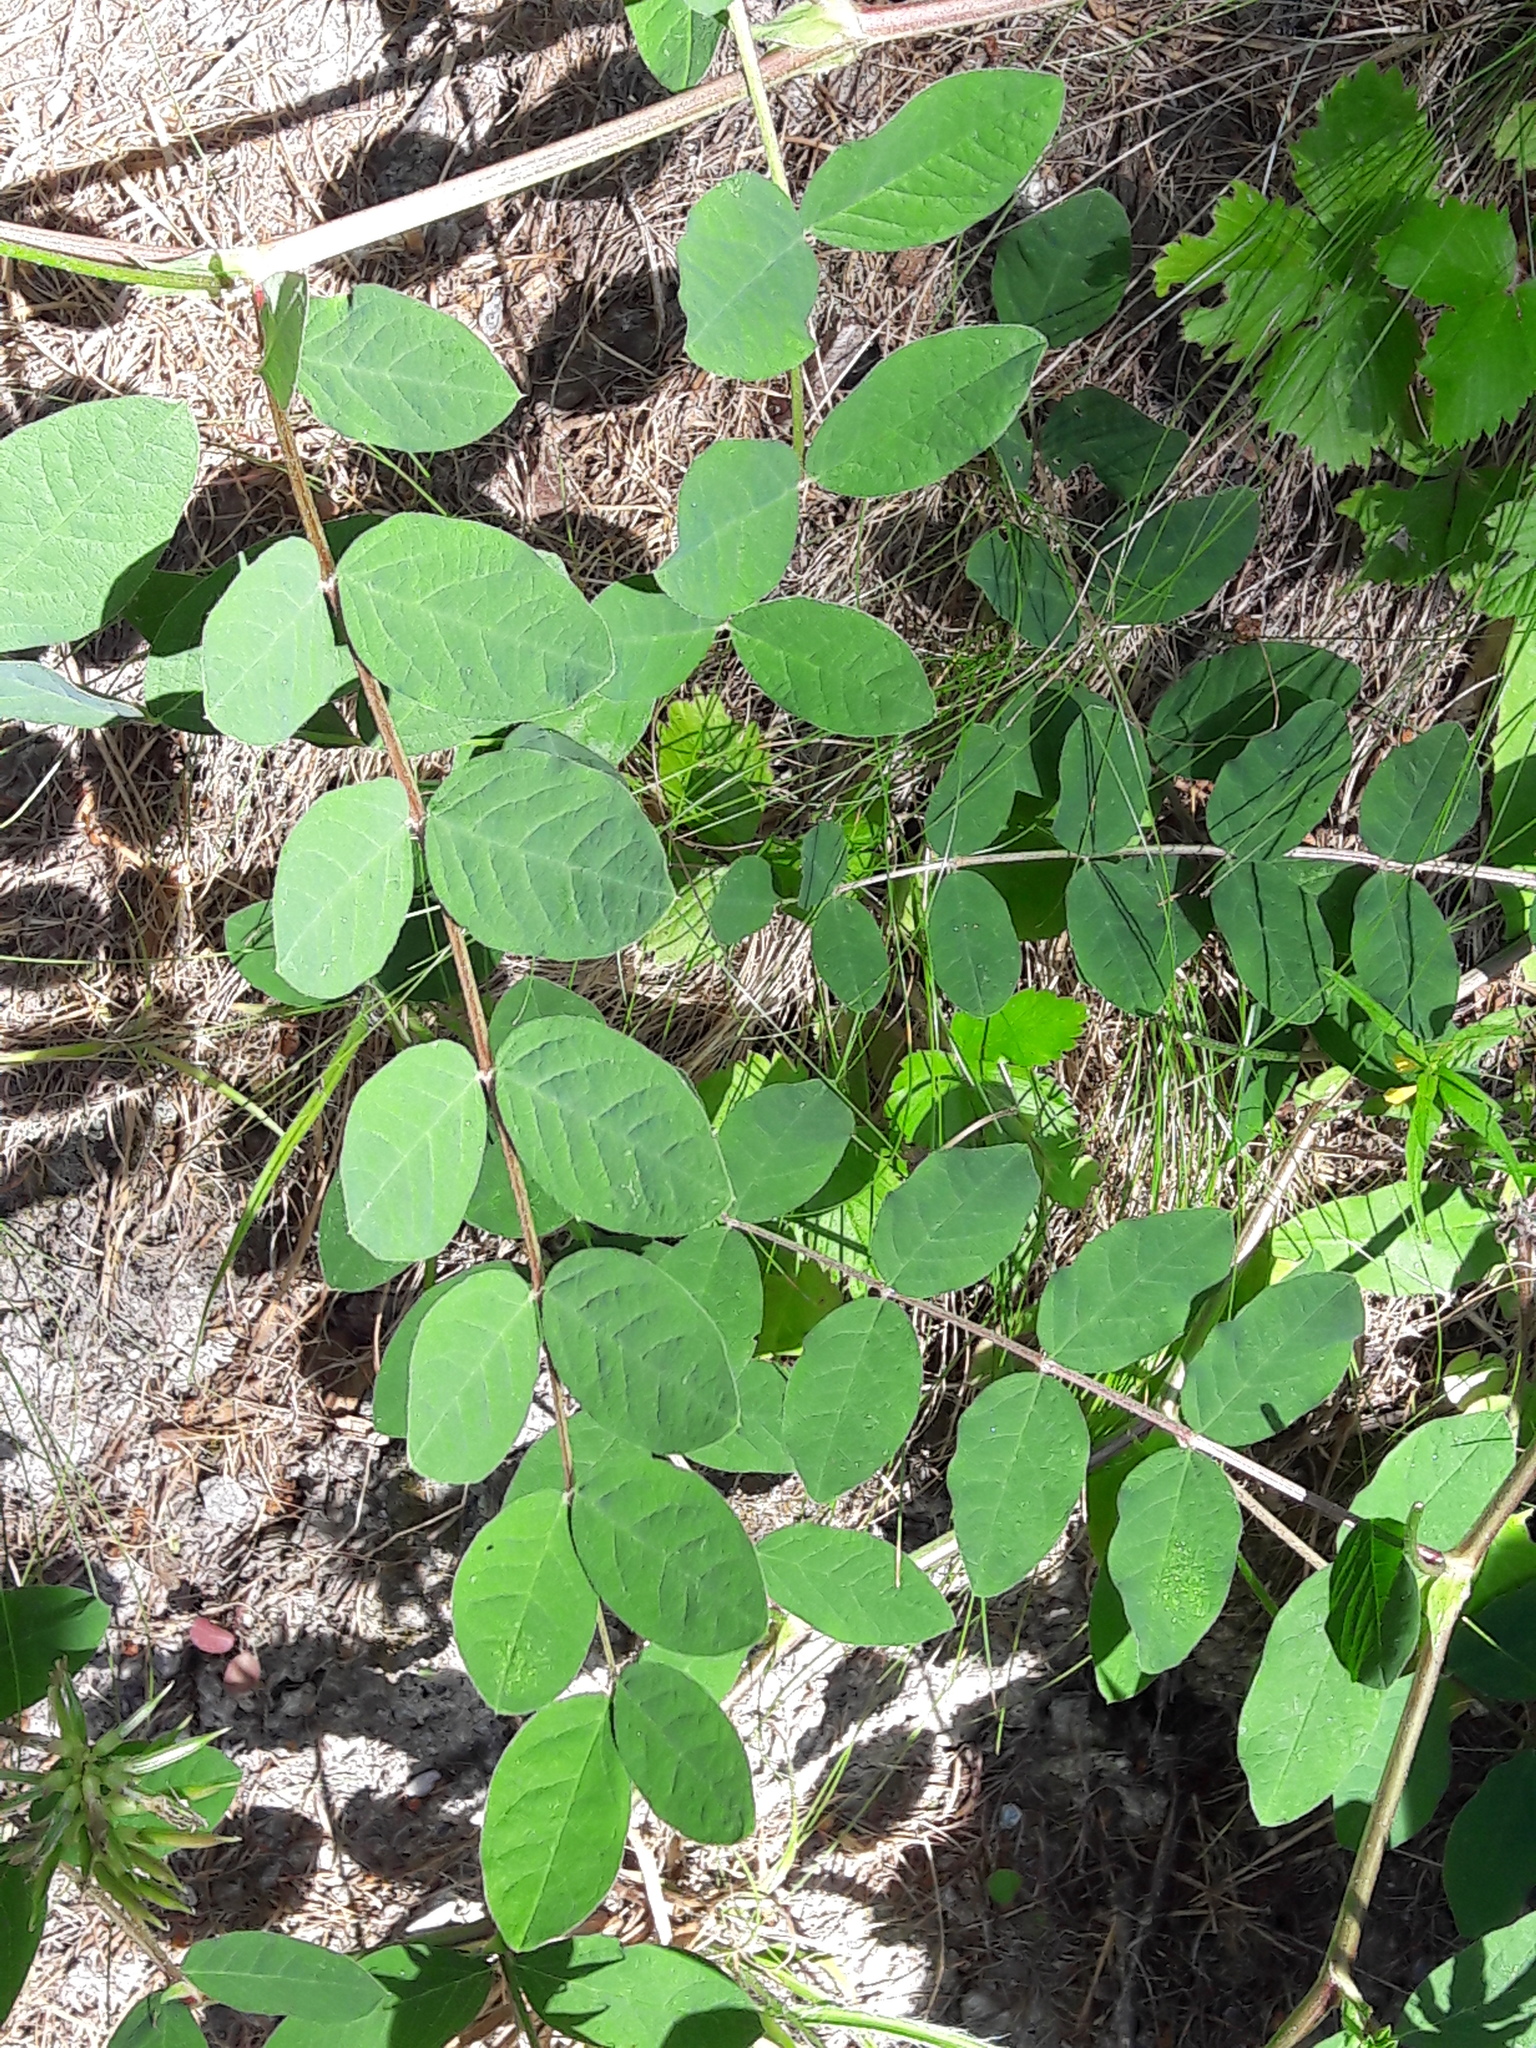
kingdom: Plantae
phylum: Tracheophyta
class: Magnoliopsida
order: Fabales
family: Fabaceae
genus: Astragalus
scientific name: Astragalus glycyphyllos
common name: Wild liquorice
